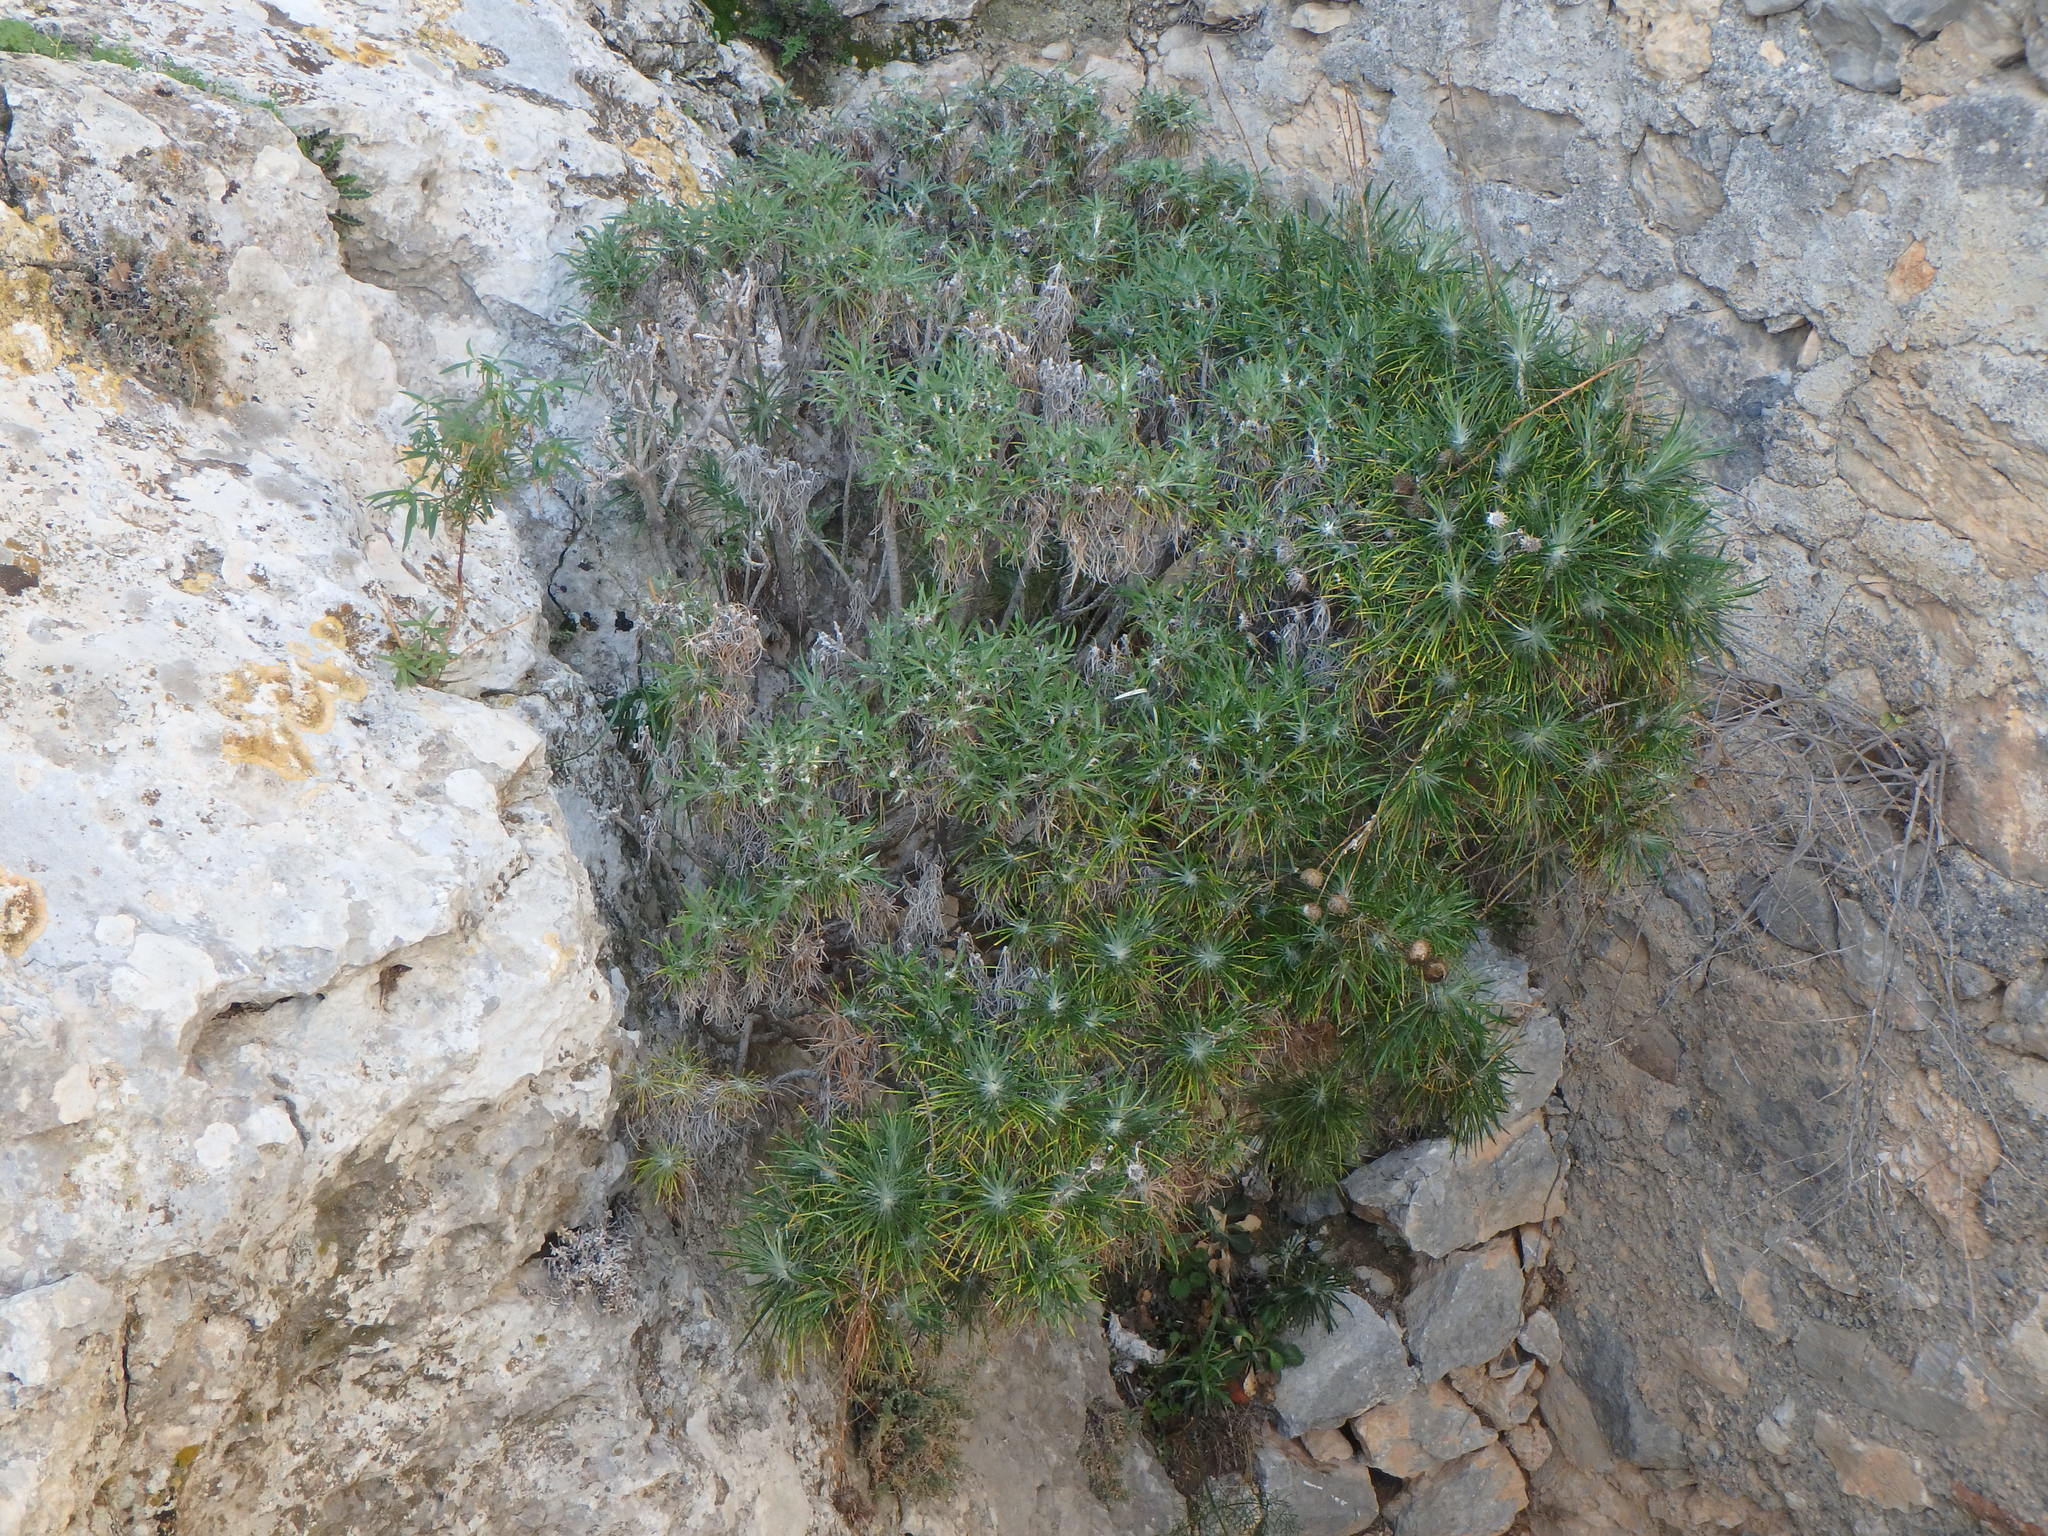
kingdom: Plantae
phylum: Tracheophyta
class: Magnoliopsida
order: Asterales
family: Asteraceae
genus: Ptilostemon
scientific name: Ptilostemon chamaepeuce
